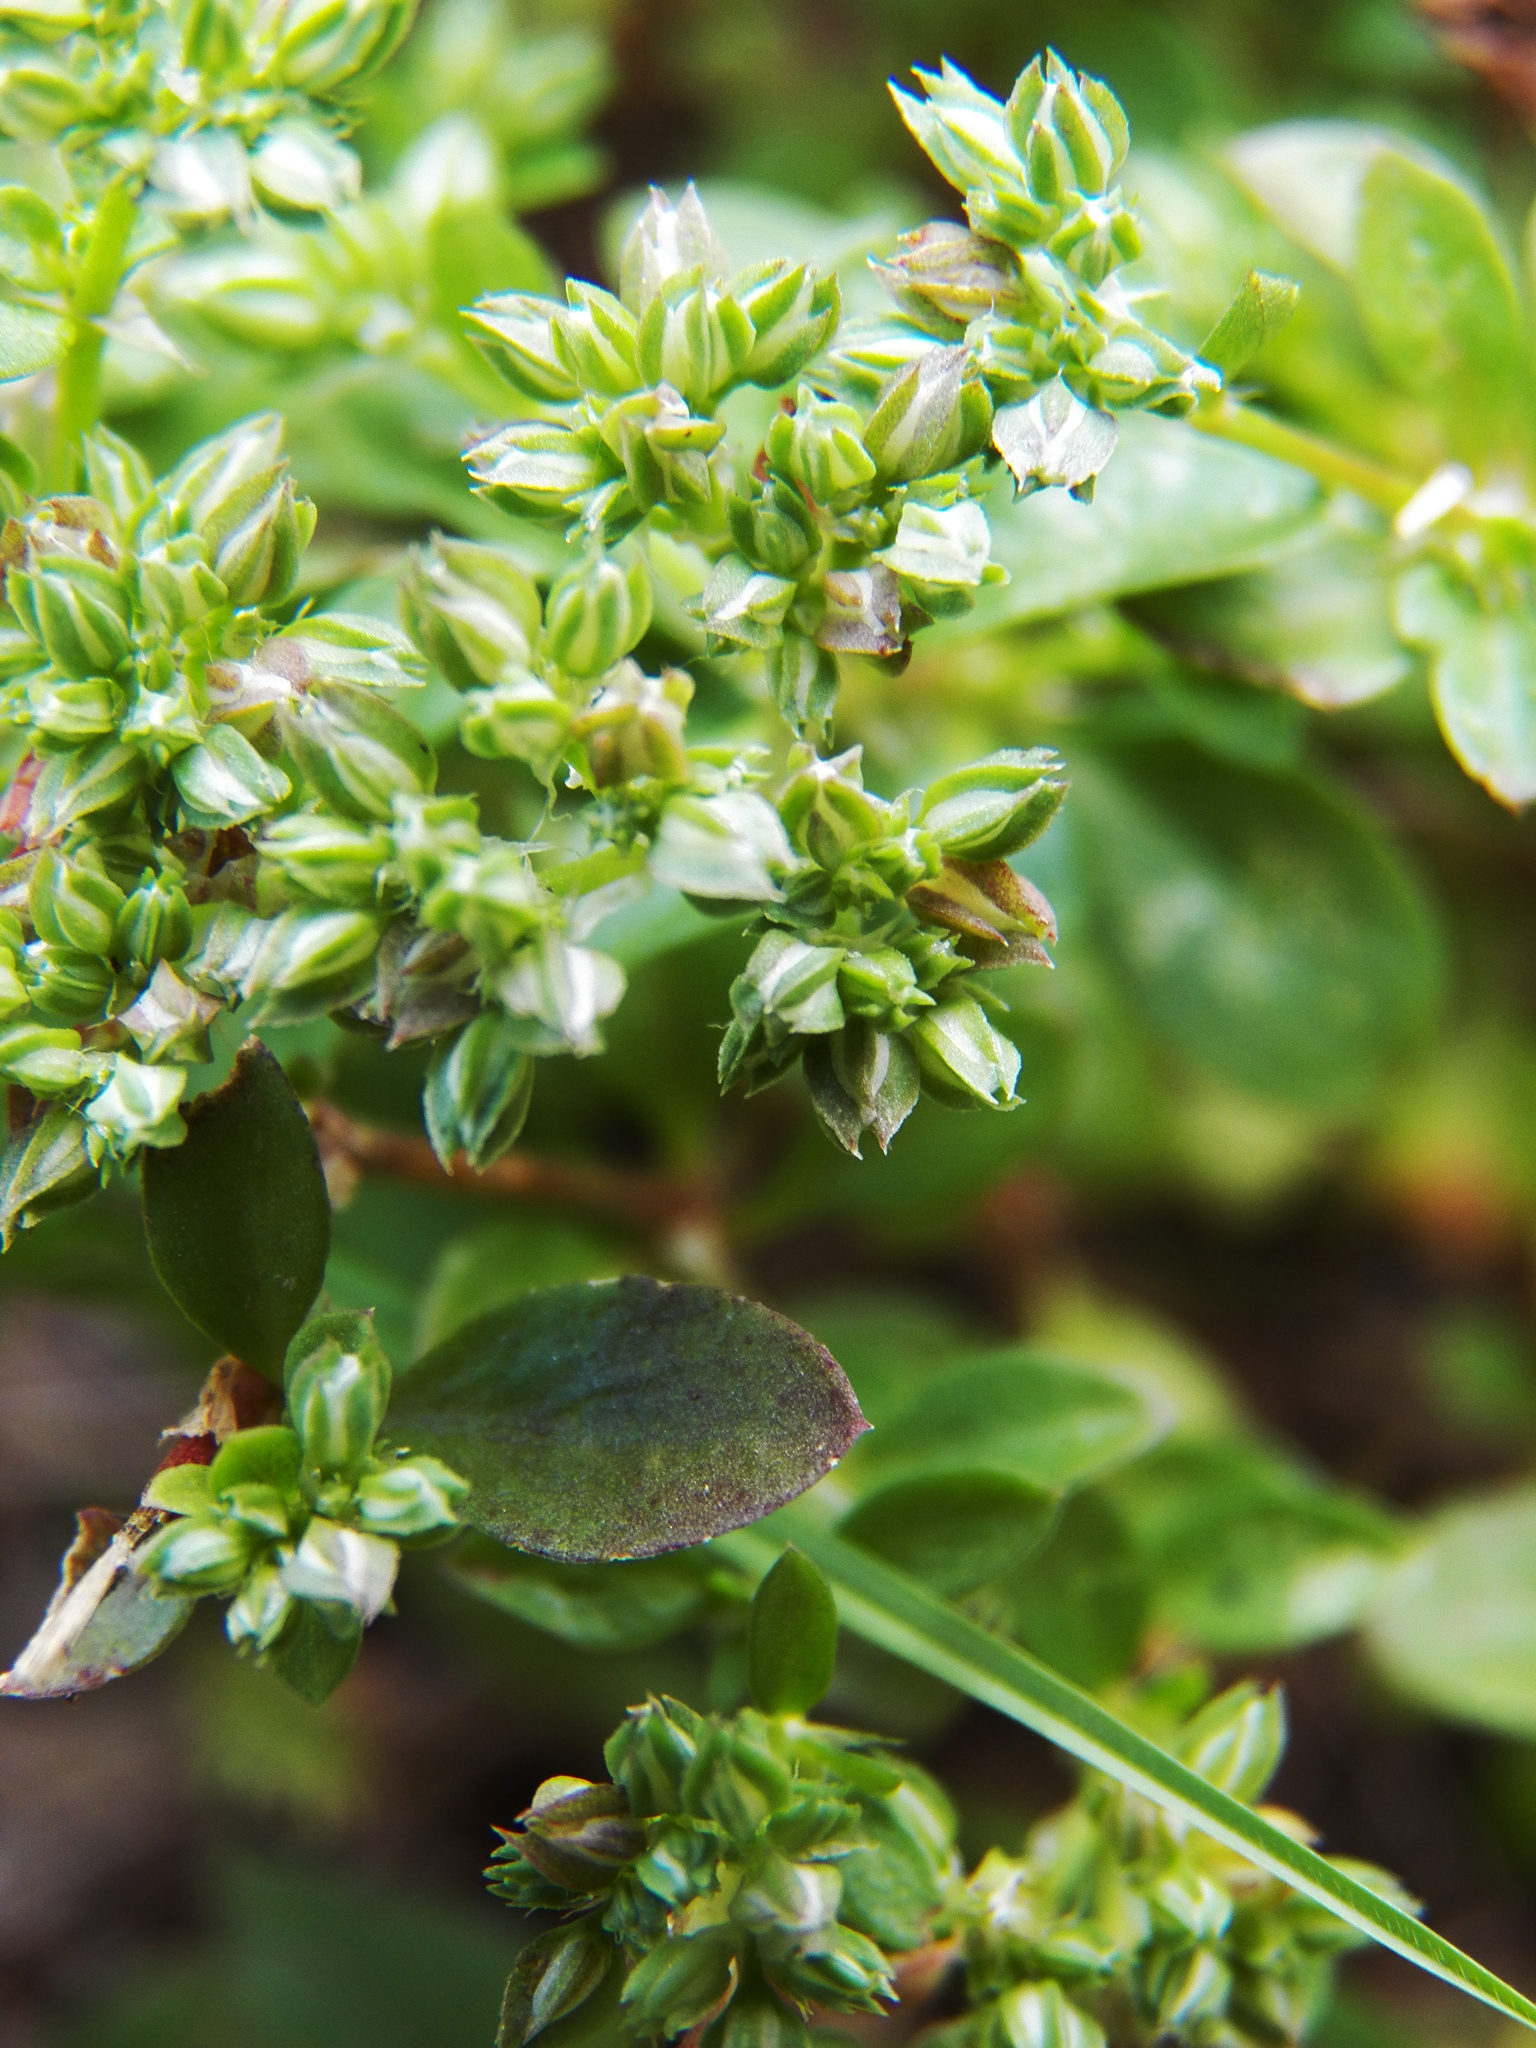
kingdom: Plantae
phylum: Tracheophyta
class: Magnoliopsida
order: Caryophyllales
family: Caryophyllaceae
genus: Polycarpon
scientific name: Polycarpon tetraphyllum
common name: Four-leaved all-seed
